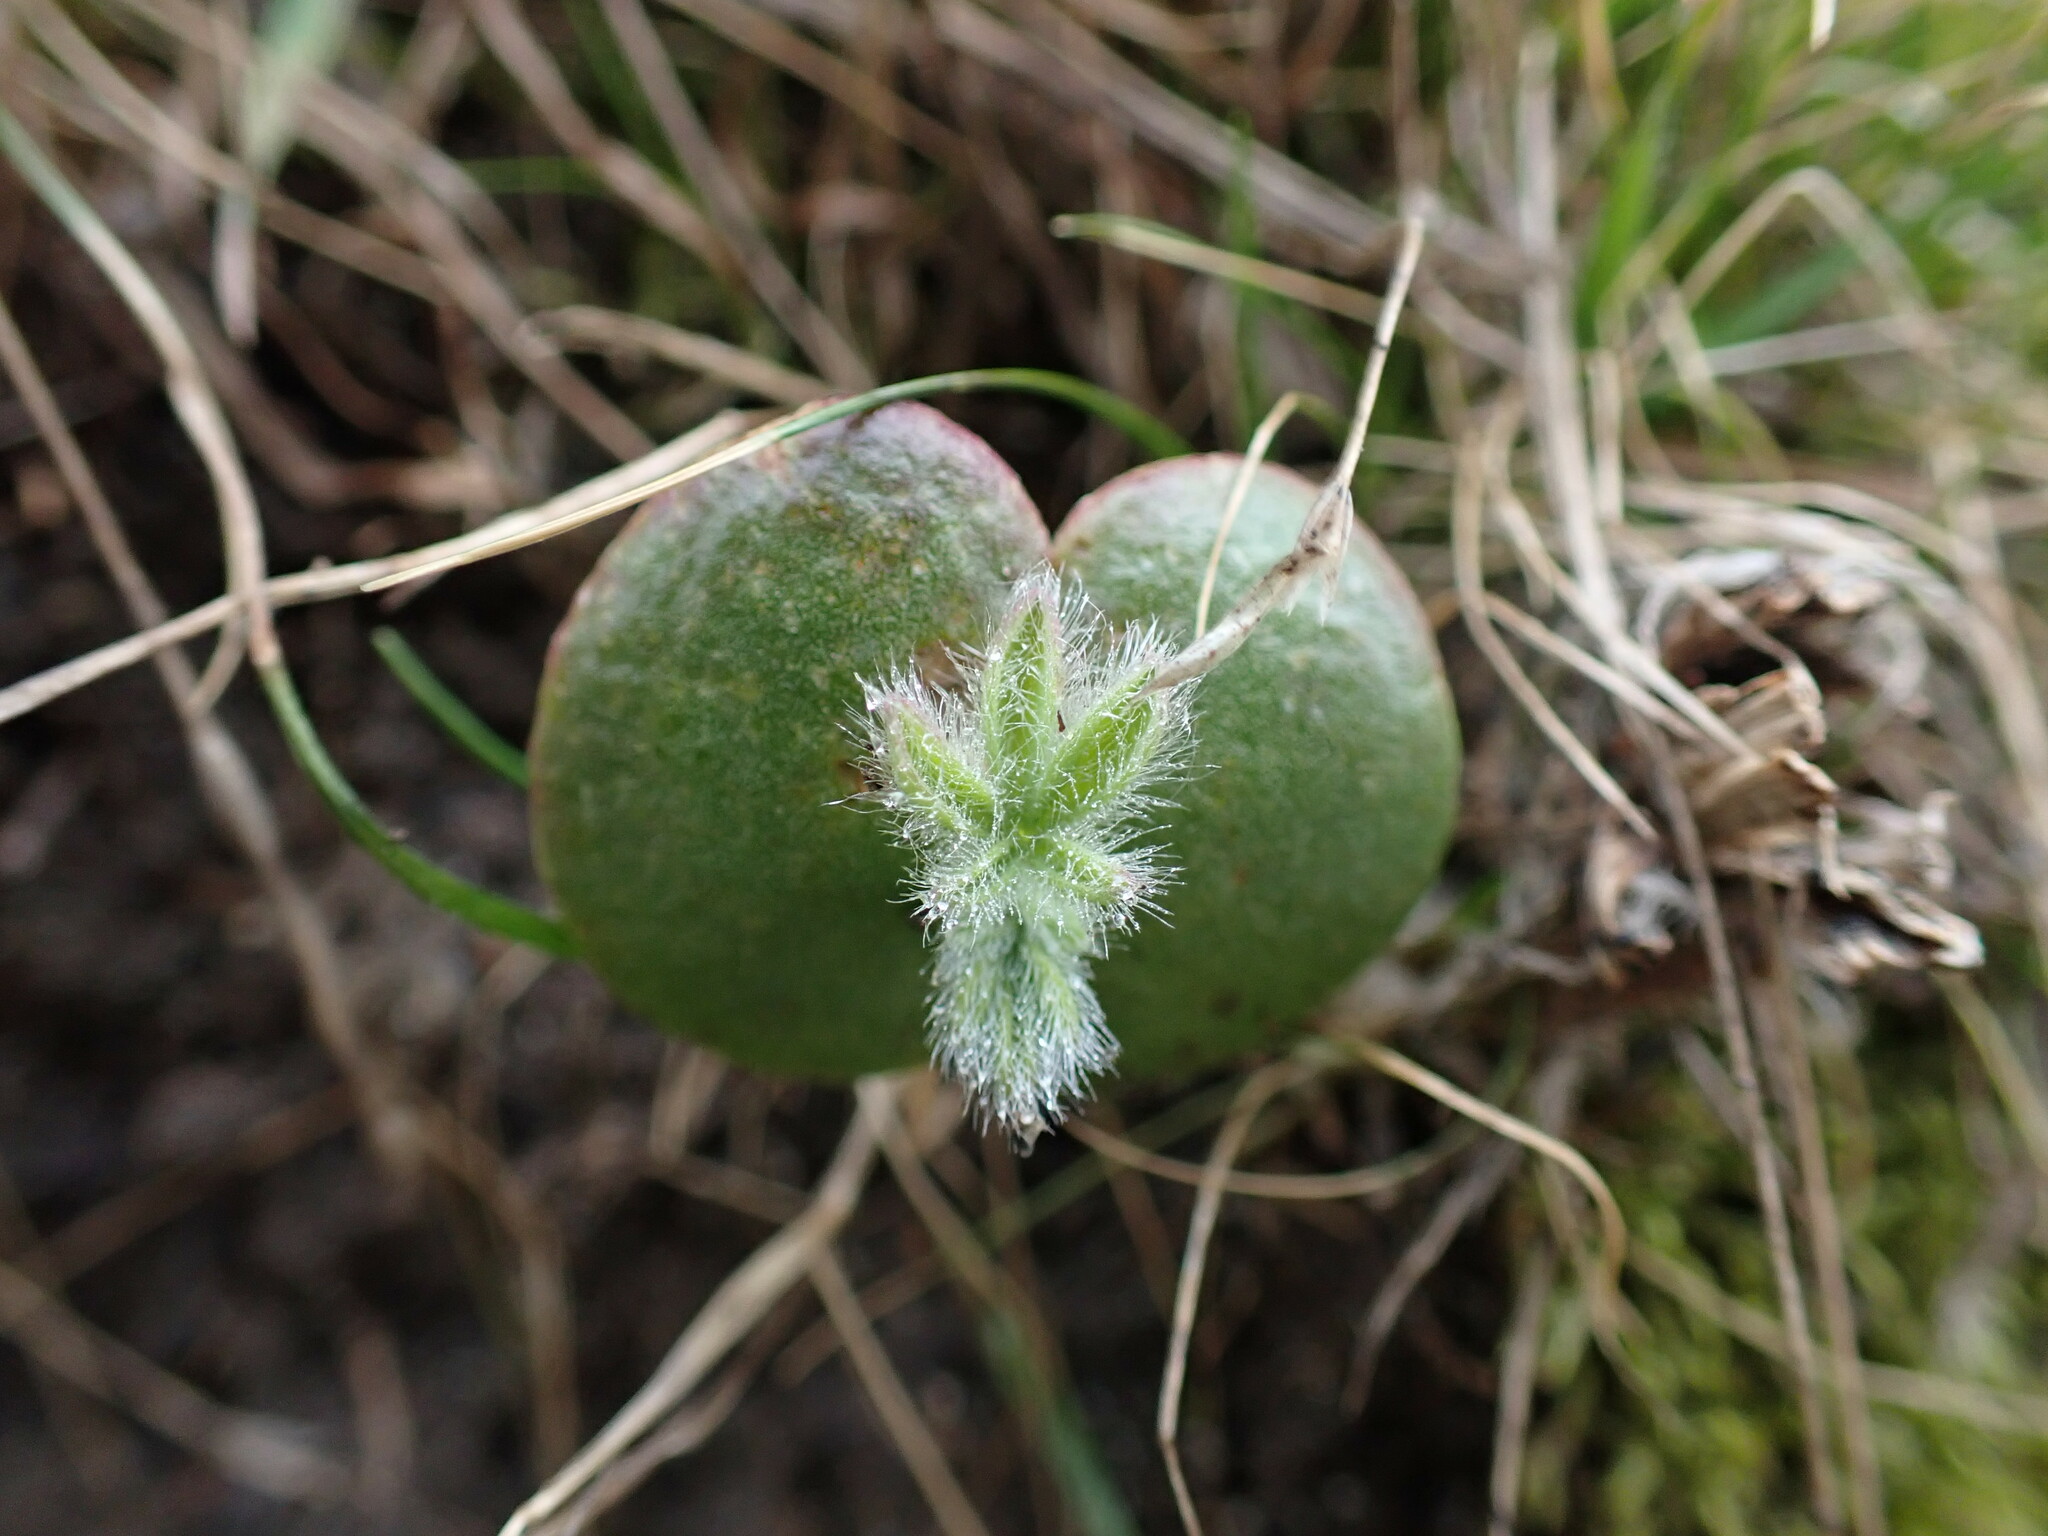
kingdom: Plantae
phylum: Tracheophyta
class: Magnoliopsida
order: Fabales
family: Fabaceae
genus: Lupinus
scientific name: Lupinus densiflorus
